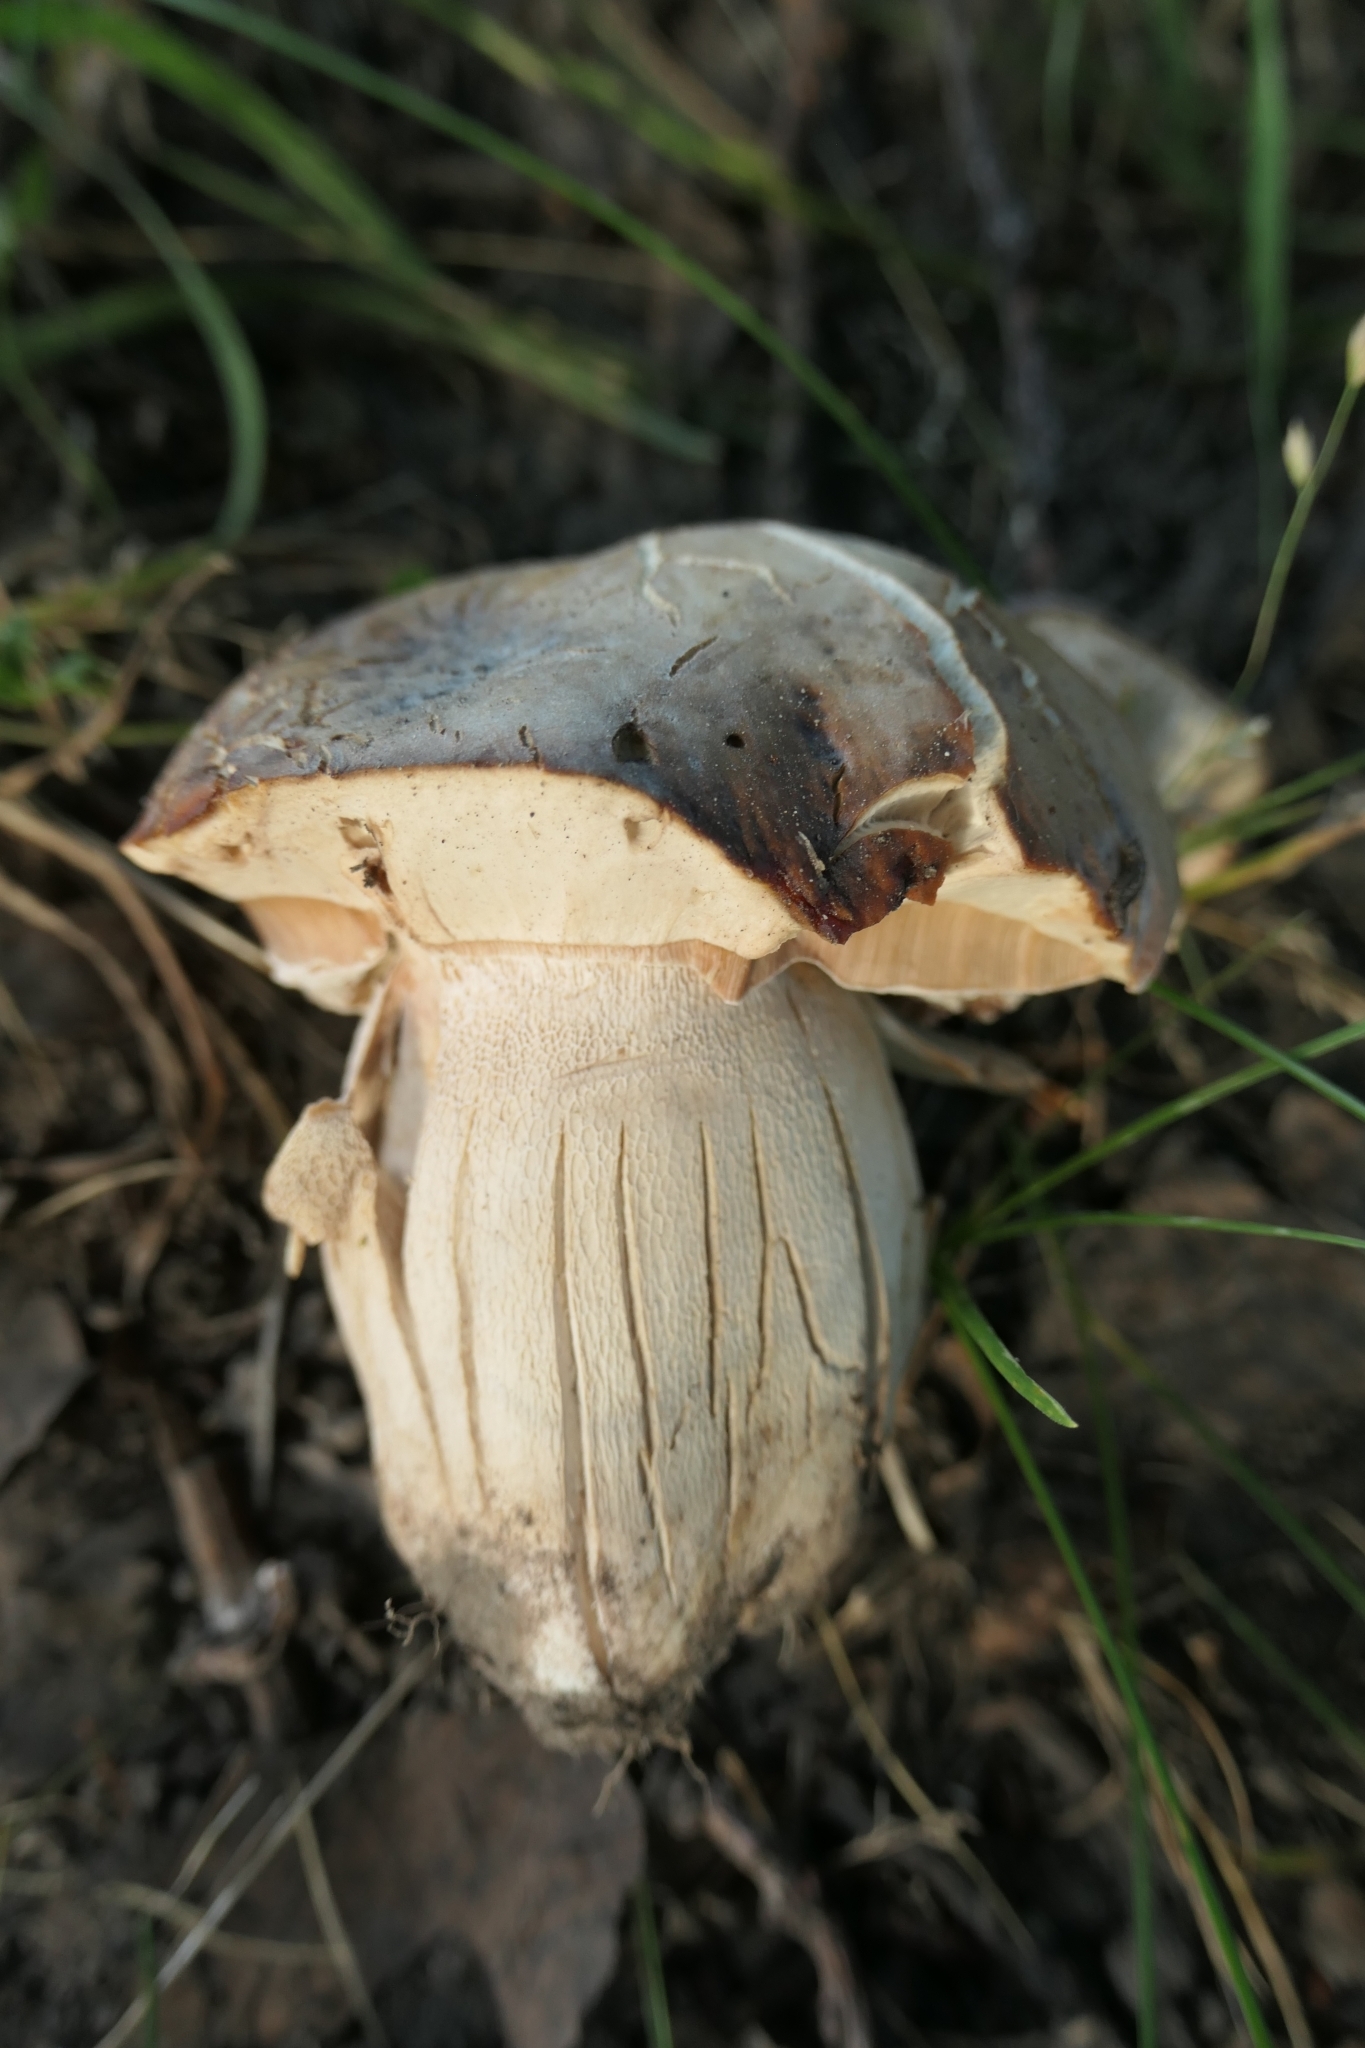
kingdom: Fungi
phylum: Basidiomycota
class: Agaricomycetes
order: Boletales
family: Boletaceae
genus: Boletus
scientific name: Boletus edulis
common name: Cep
